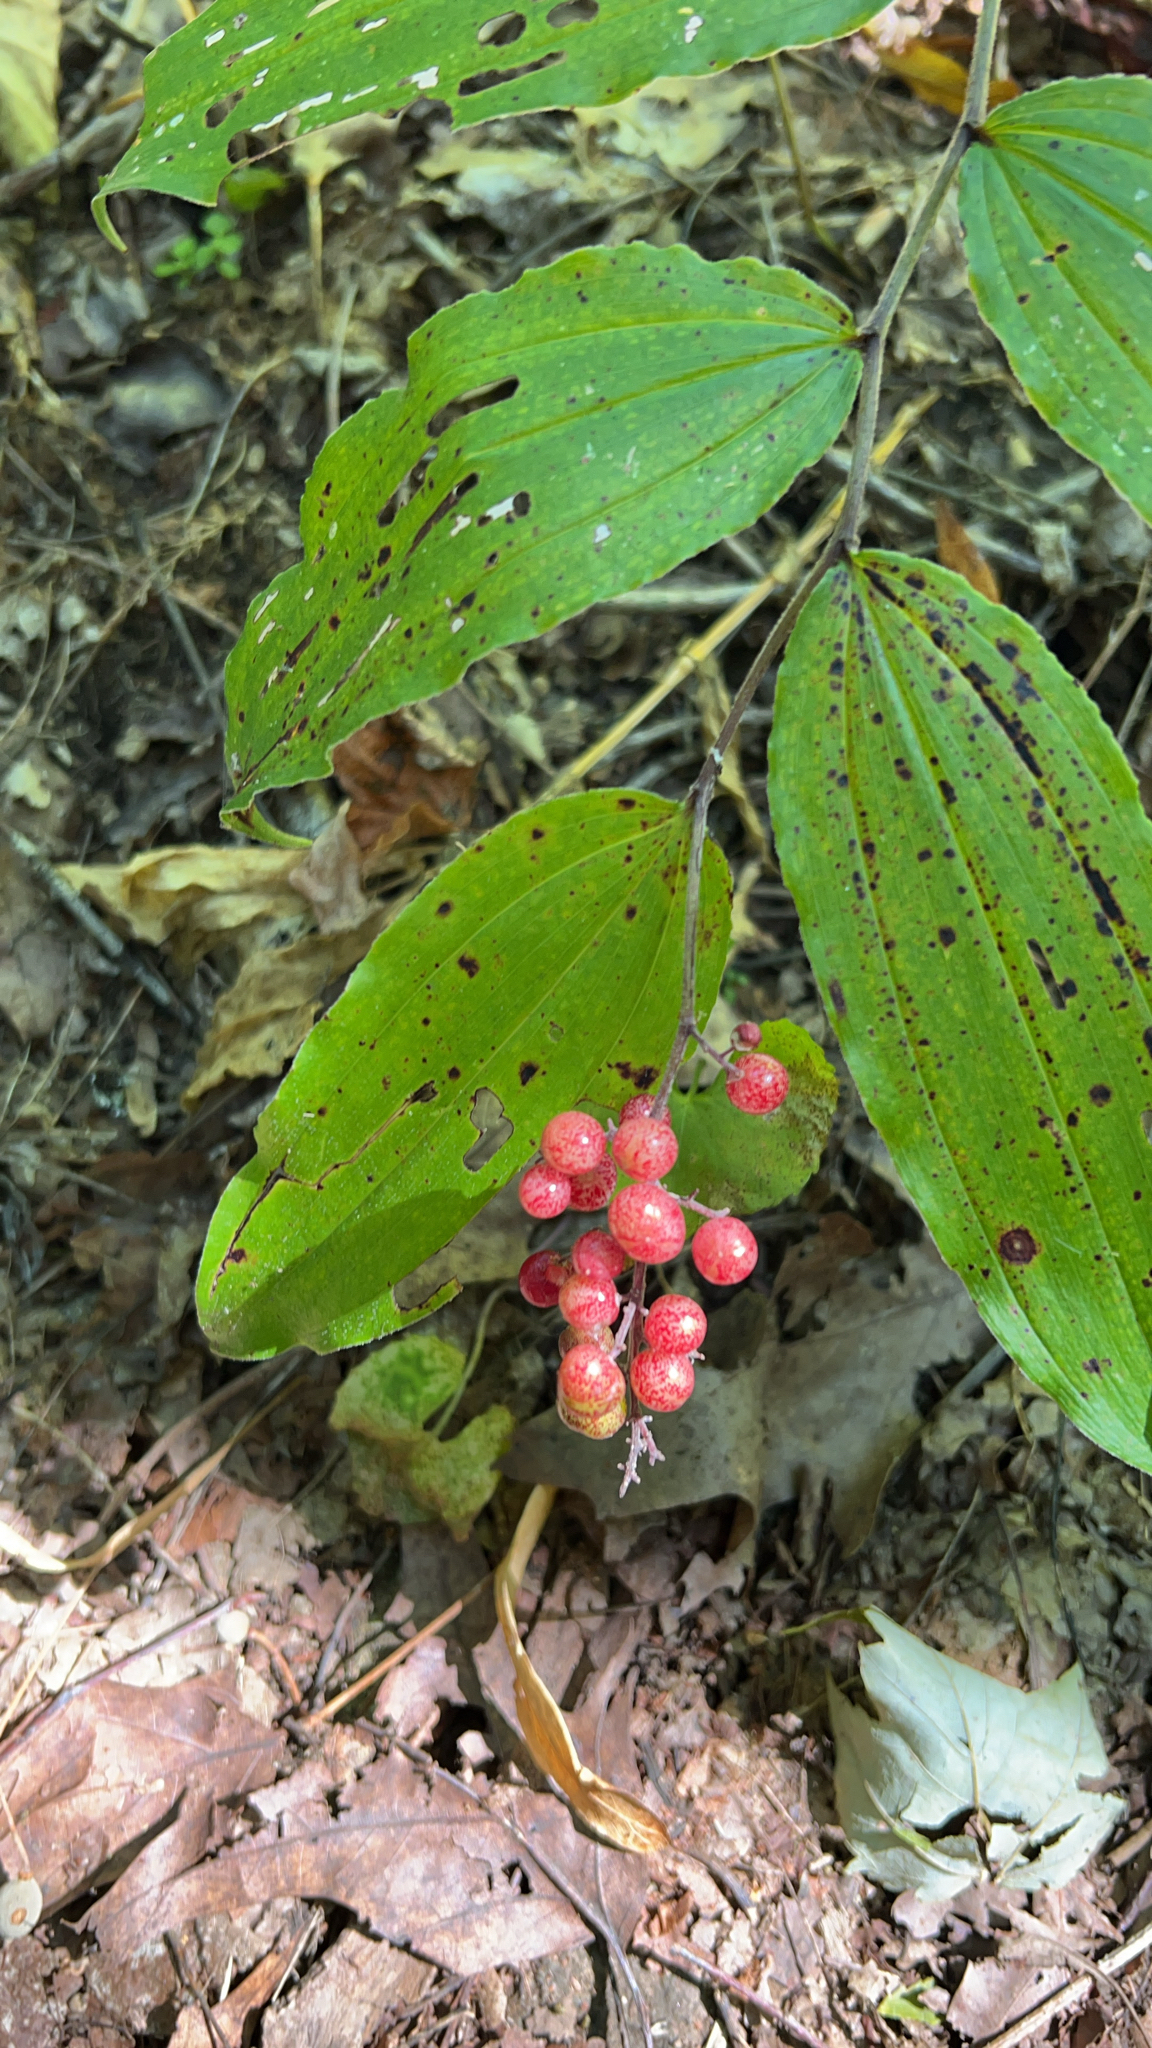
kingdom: Plantae
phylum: Tracheophyta
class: Liliopsida
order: Asparagales
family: Asparagaceae
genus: Maianthemum
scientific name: Maianthemum racemosum
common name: False spikenard
